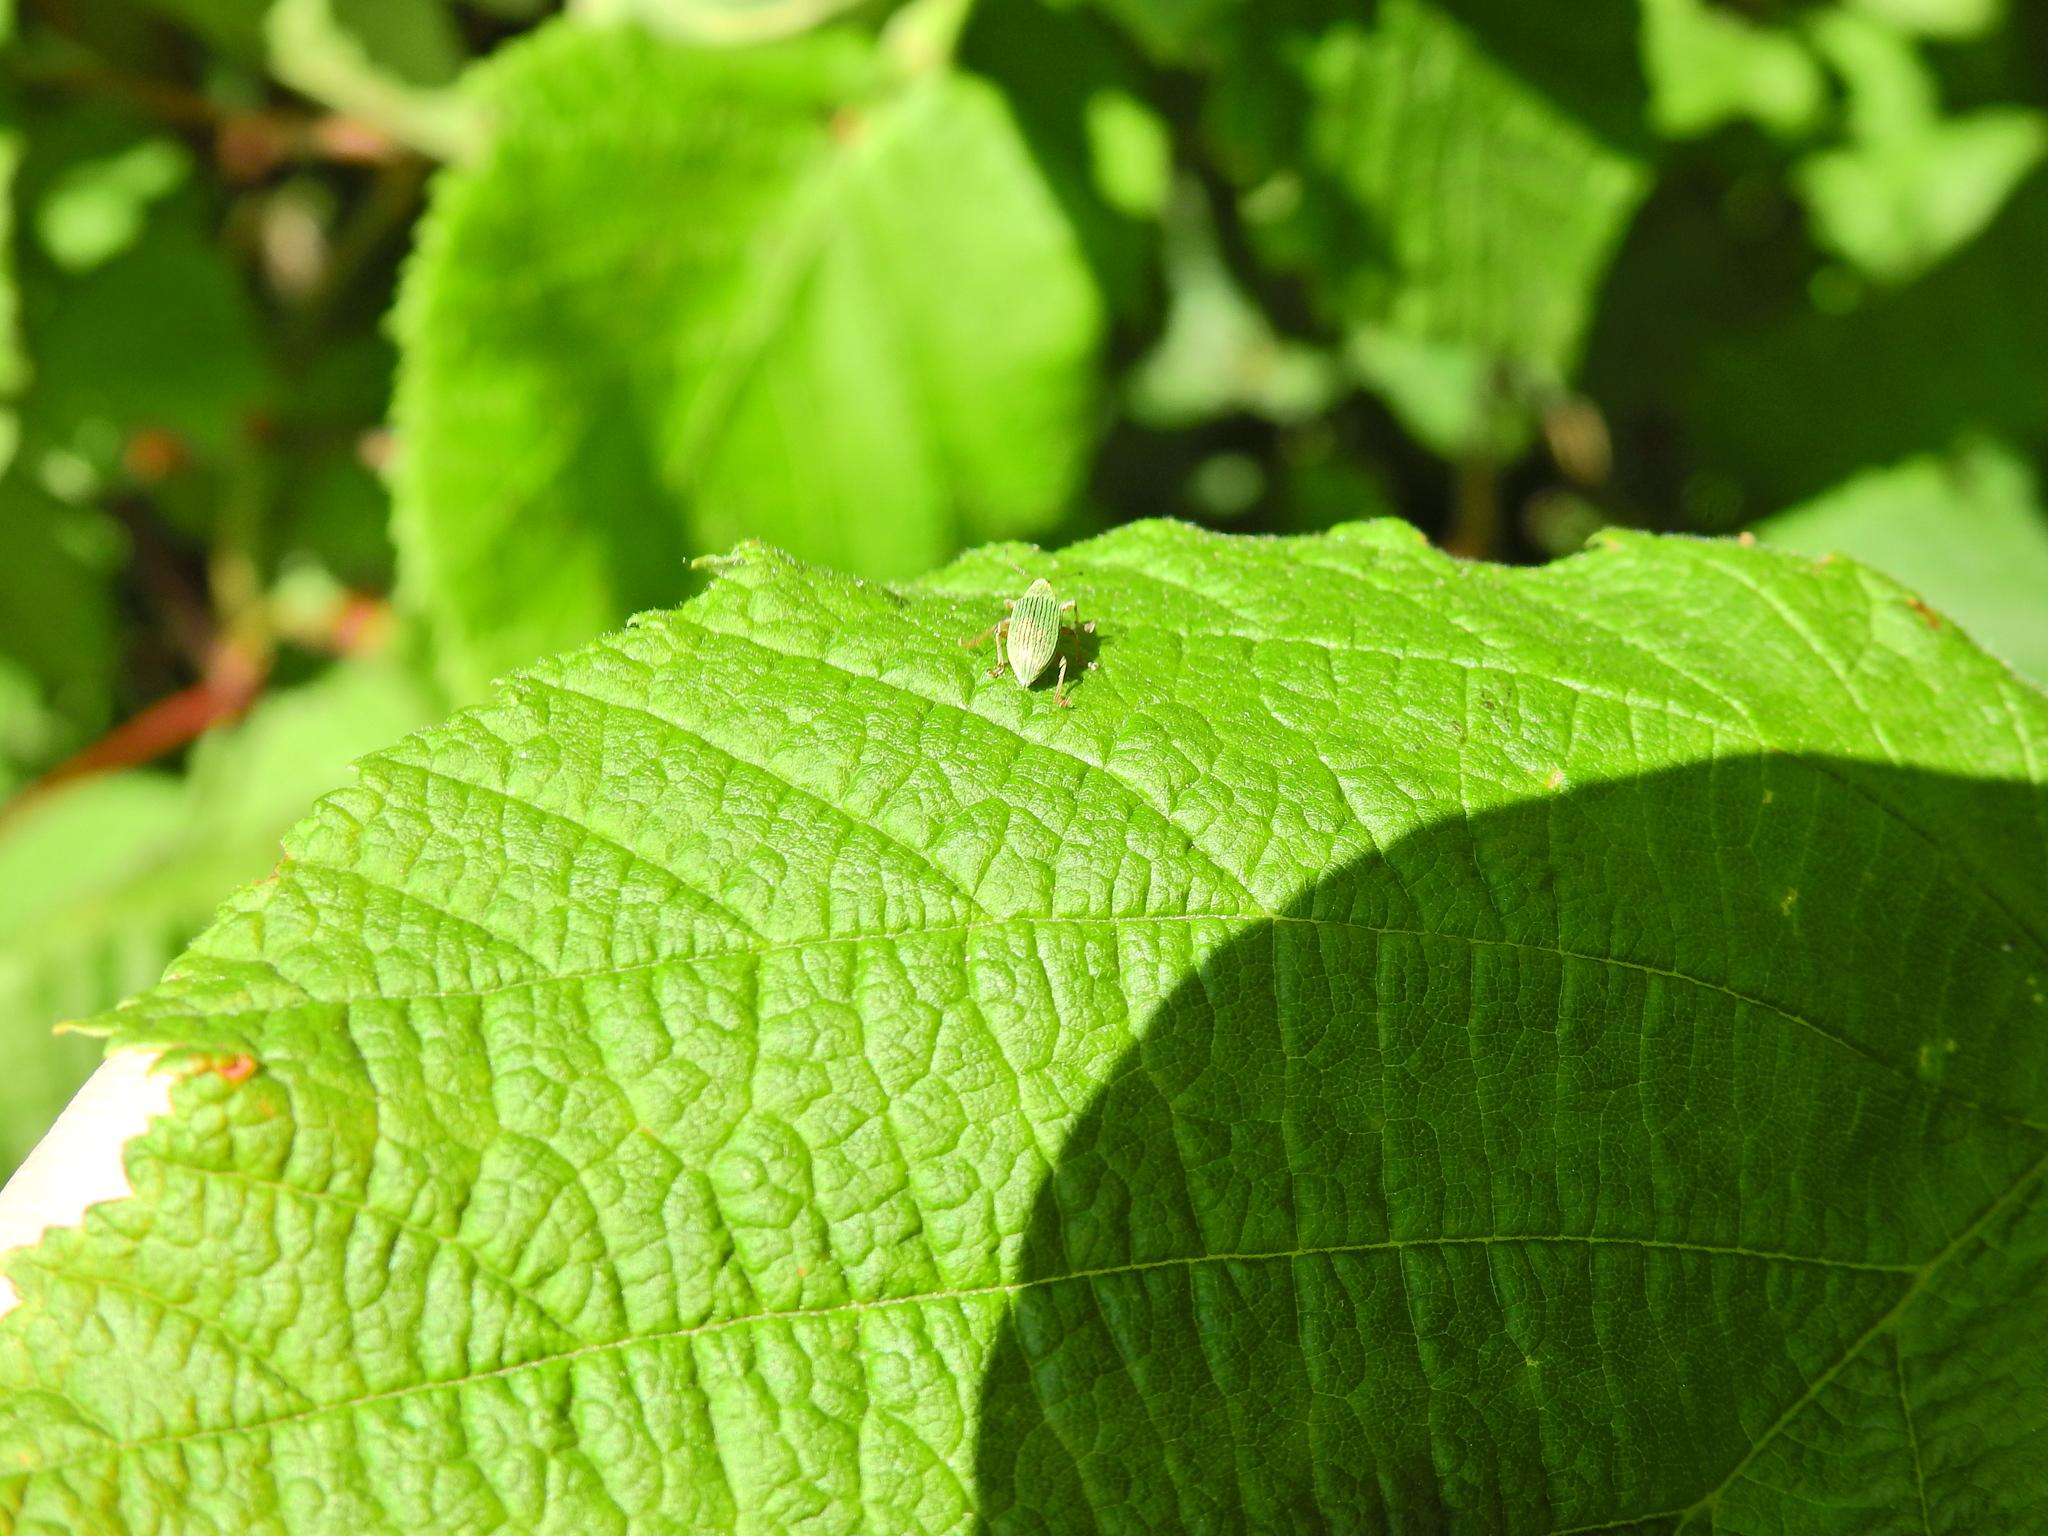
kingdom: Animalia
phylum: Arthropoda
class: Insecta
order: Coleoptera
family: Curculionidae
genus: Polydrusus
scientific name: Polydrusus formosus
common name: Weevil
